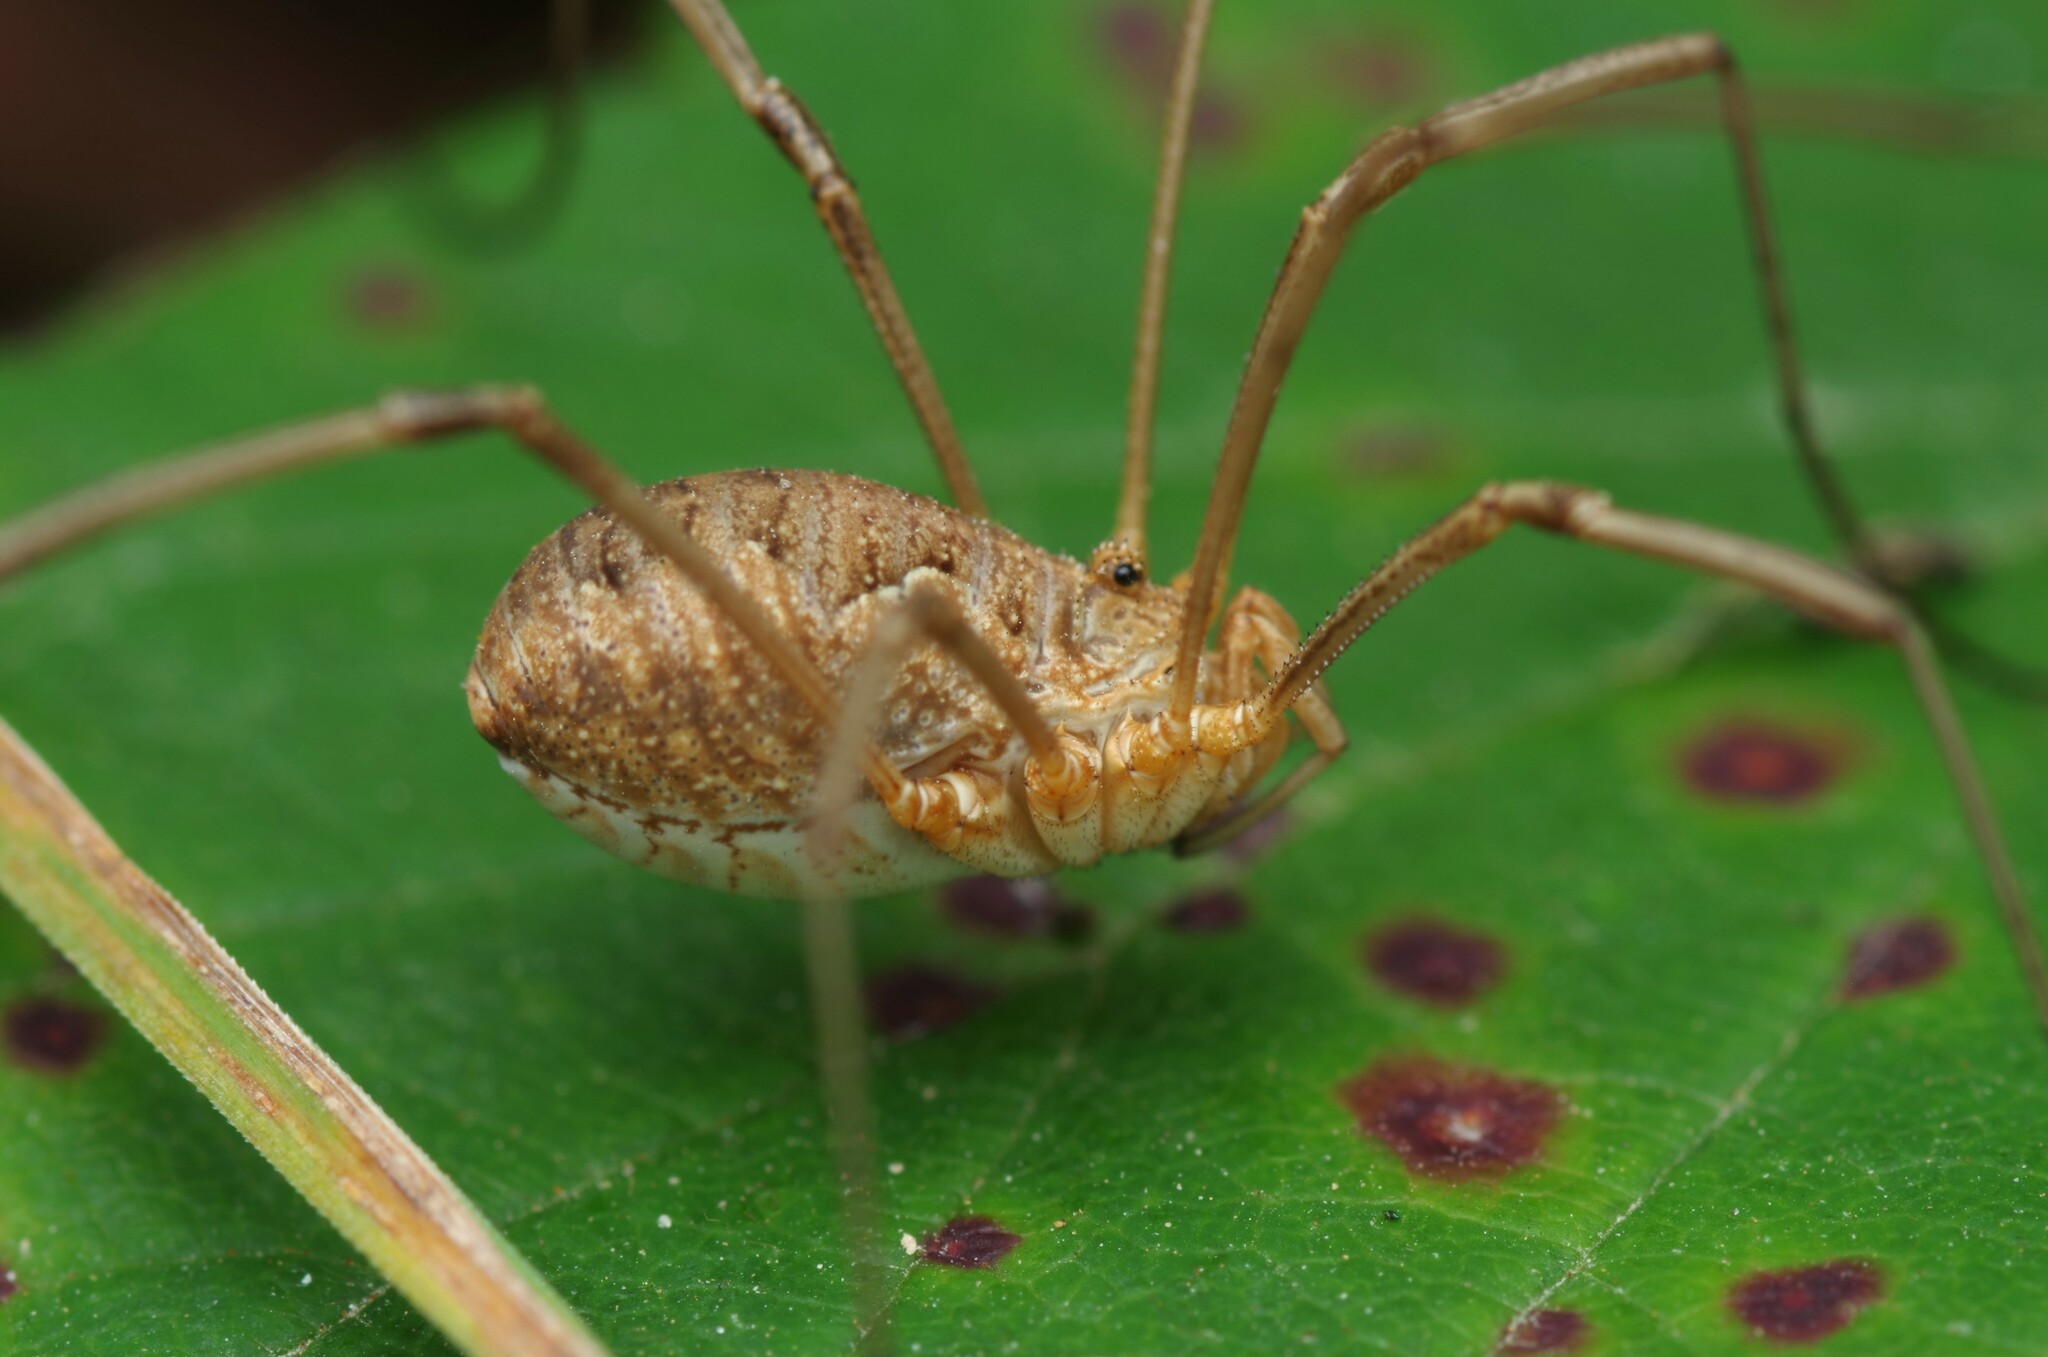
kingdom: Animalia
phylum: Arthropoda
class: Arachnida
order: Opiliones
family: Phalangiidae
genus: Phalangium
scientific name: Phalangium opilio
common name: Daddy longleg
